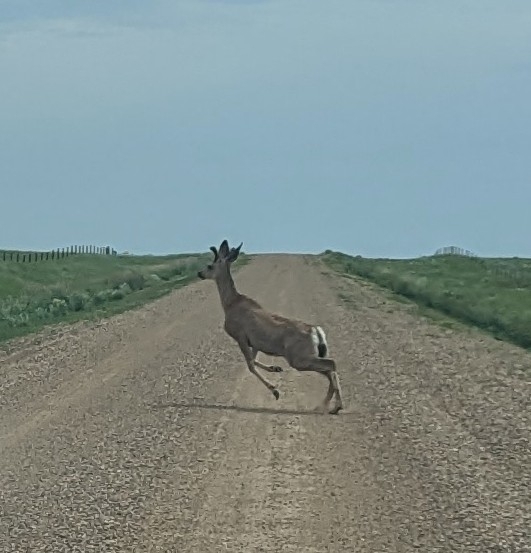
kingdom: Animalia
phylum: Chordata
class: Mammalia
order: Artiodactyla
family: Cervidae
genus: Odocoileus
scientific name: Odocoileus hemionus
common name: Mule deer
